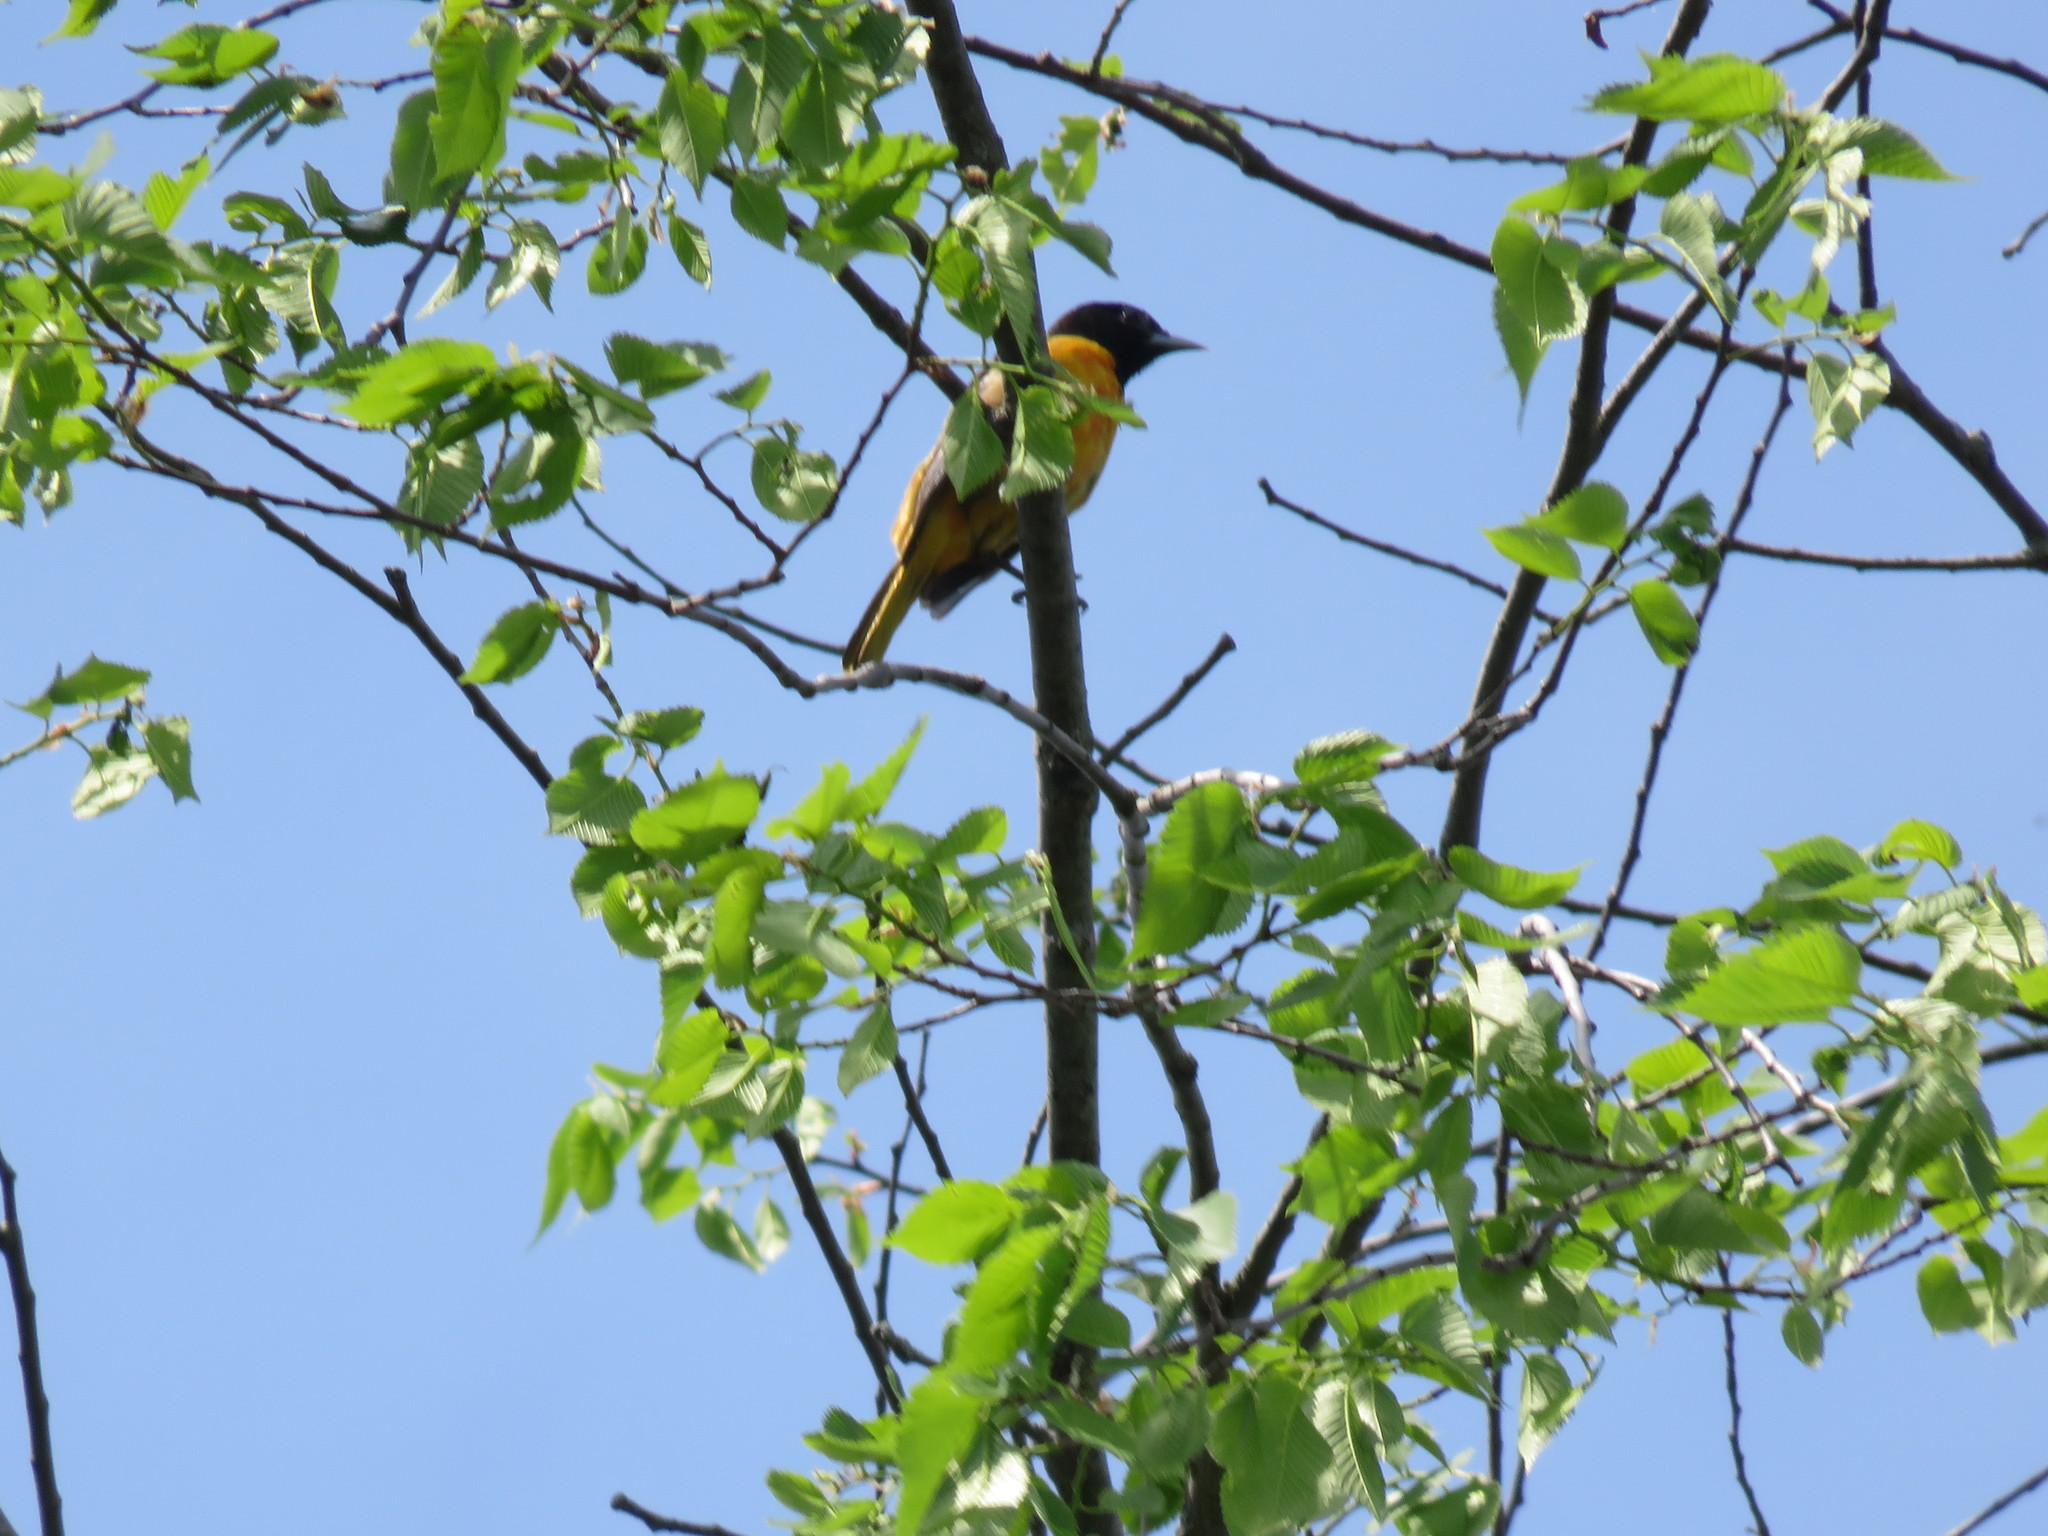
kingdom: Animalia
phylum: Chordata
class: Aves
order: Passeriformes
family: Icteridae
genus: Icterus
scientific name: Icterus galbula
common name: Baltimore oriole
